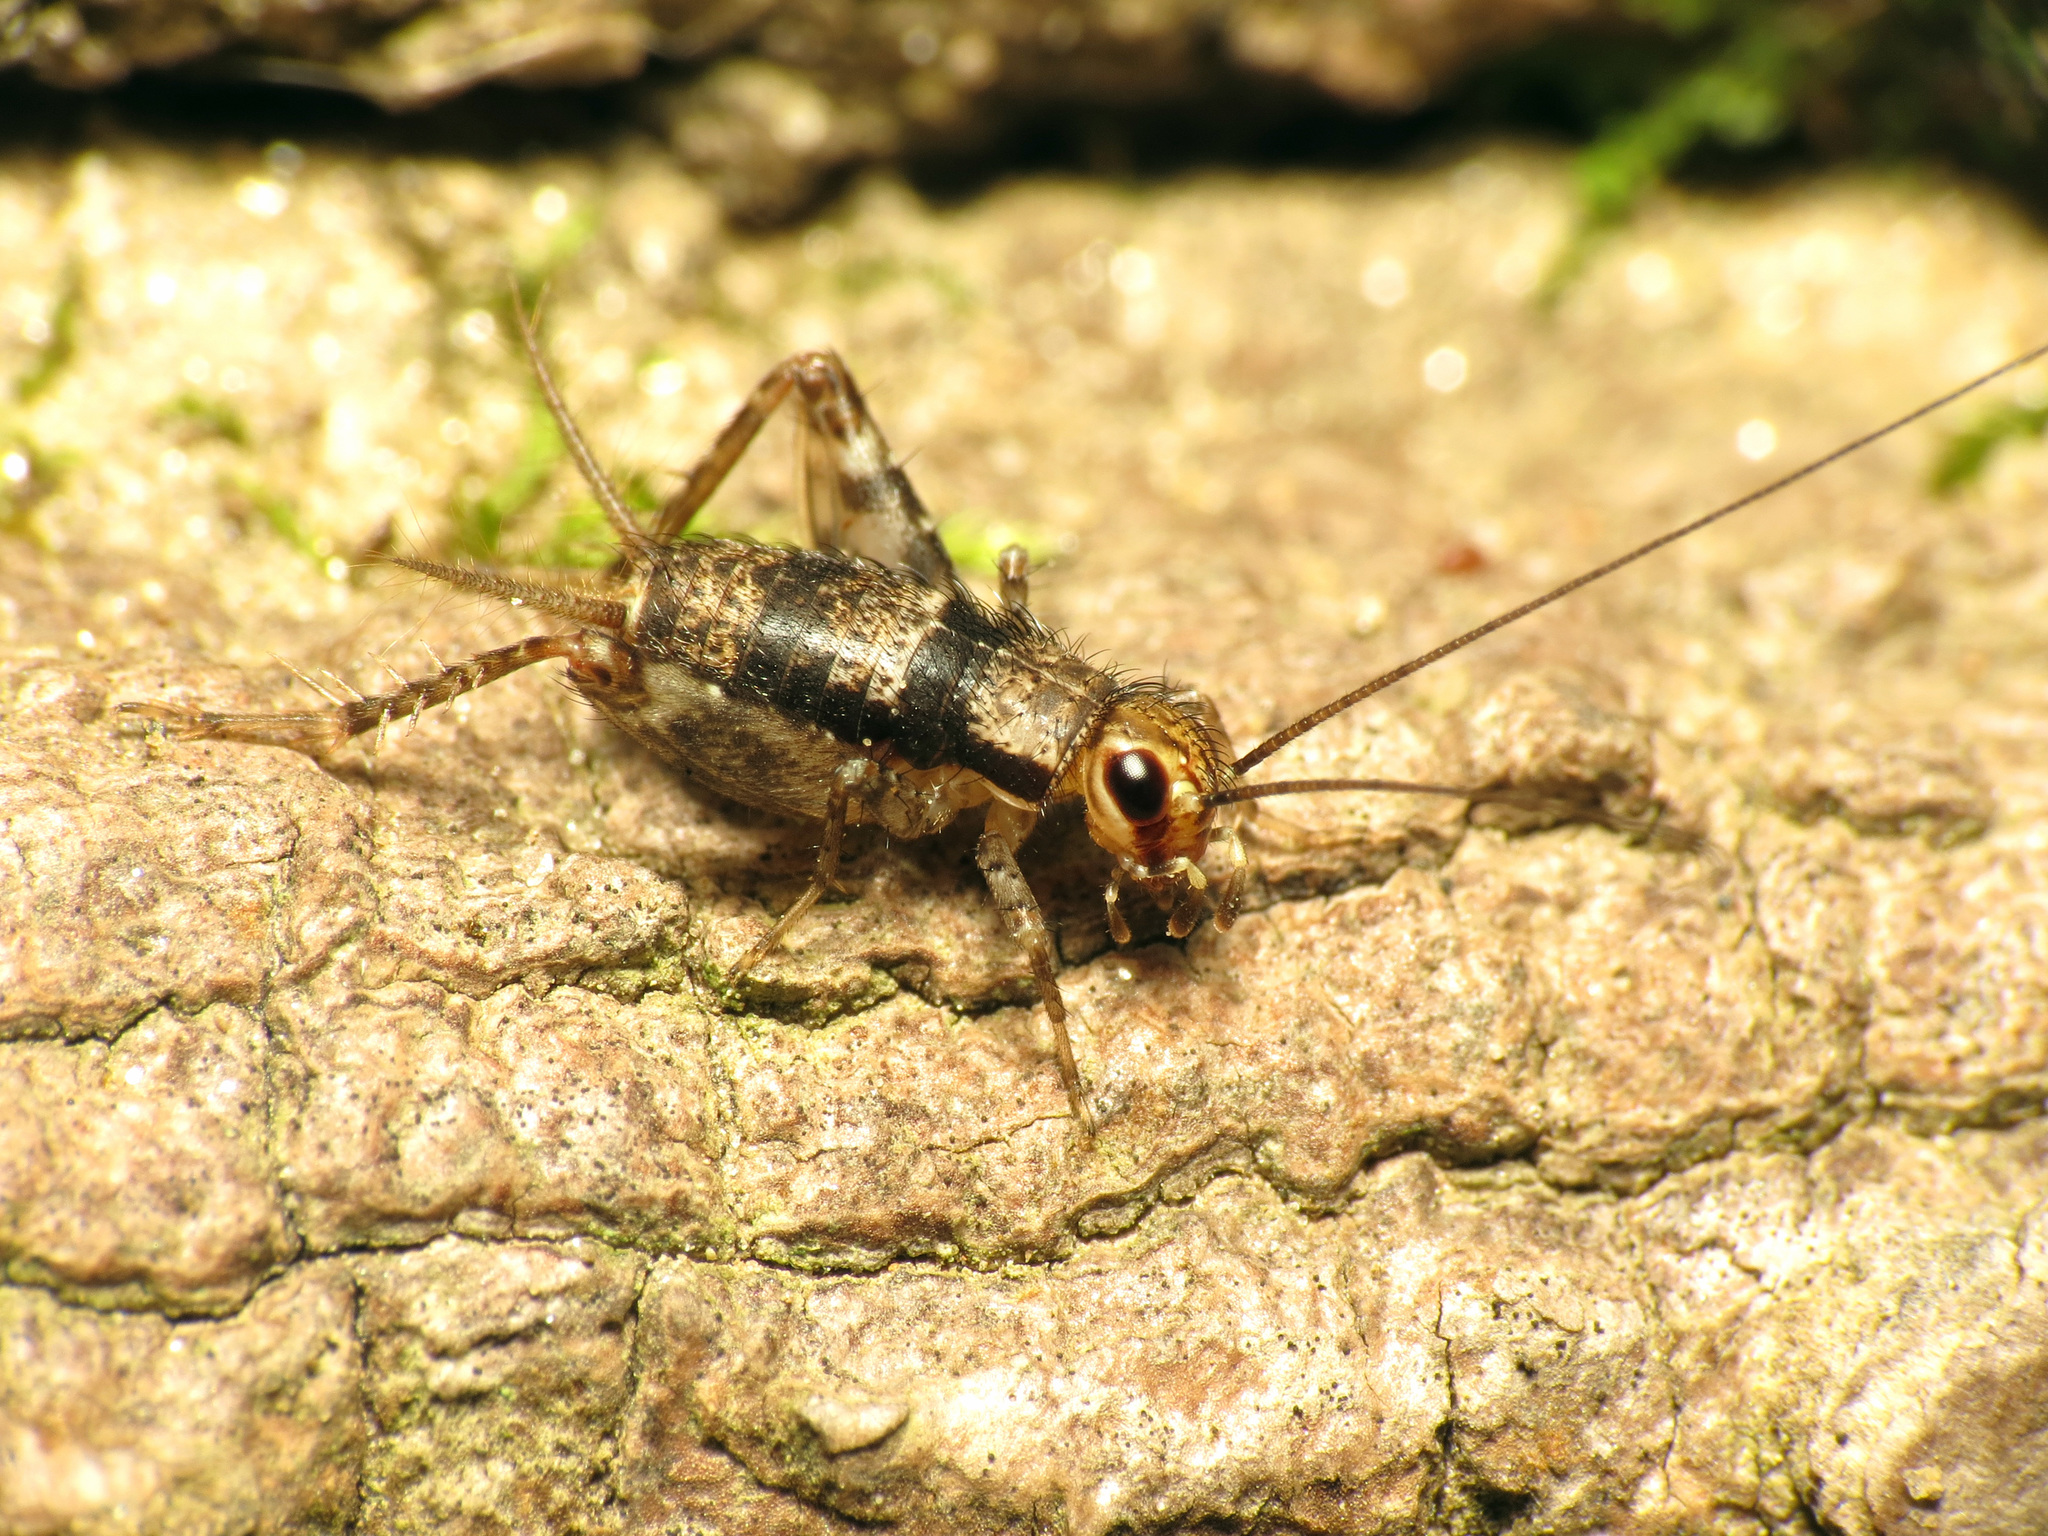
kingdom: Animalia
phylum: Arthropoda
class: Insecta
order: Orthoptera
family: Trigonidiidae
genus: Allonemobius
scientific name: Allonemobius maculatus
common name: Larger spotted ground cricket
